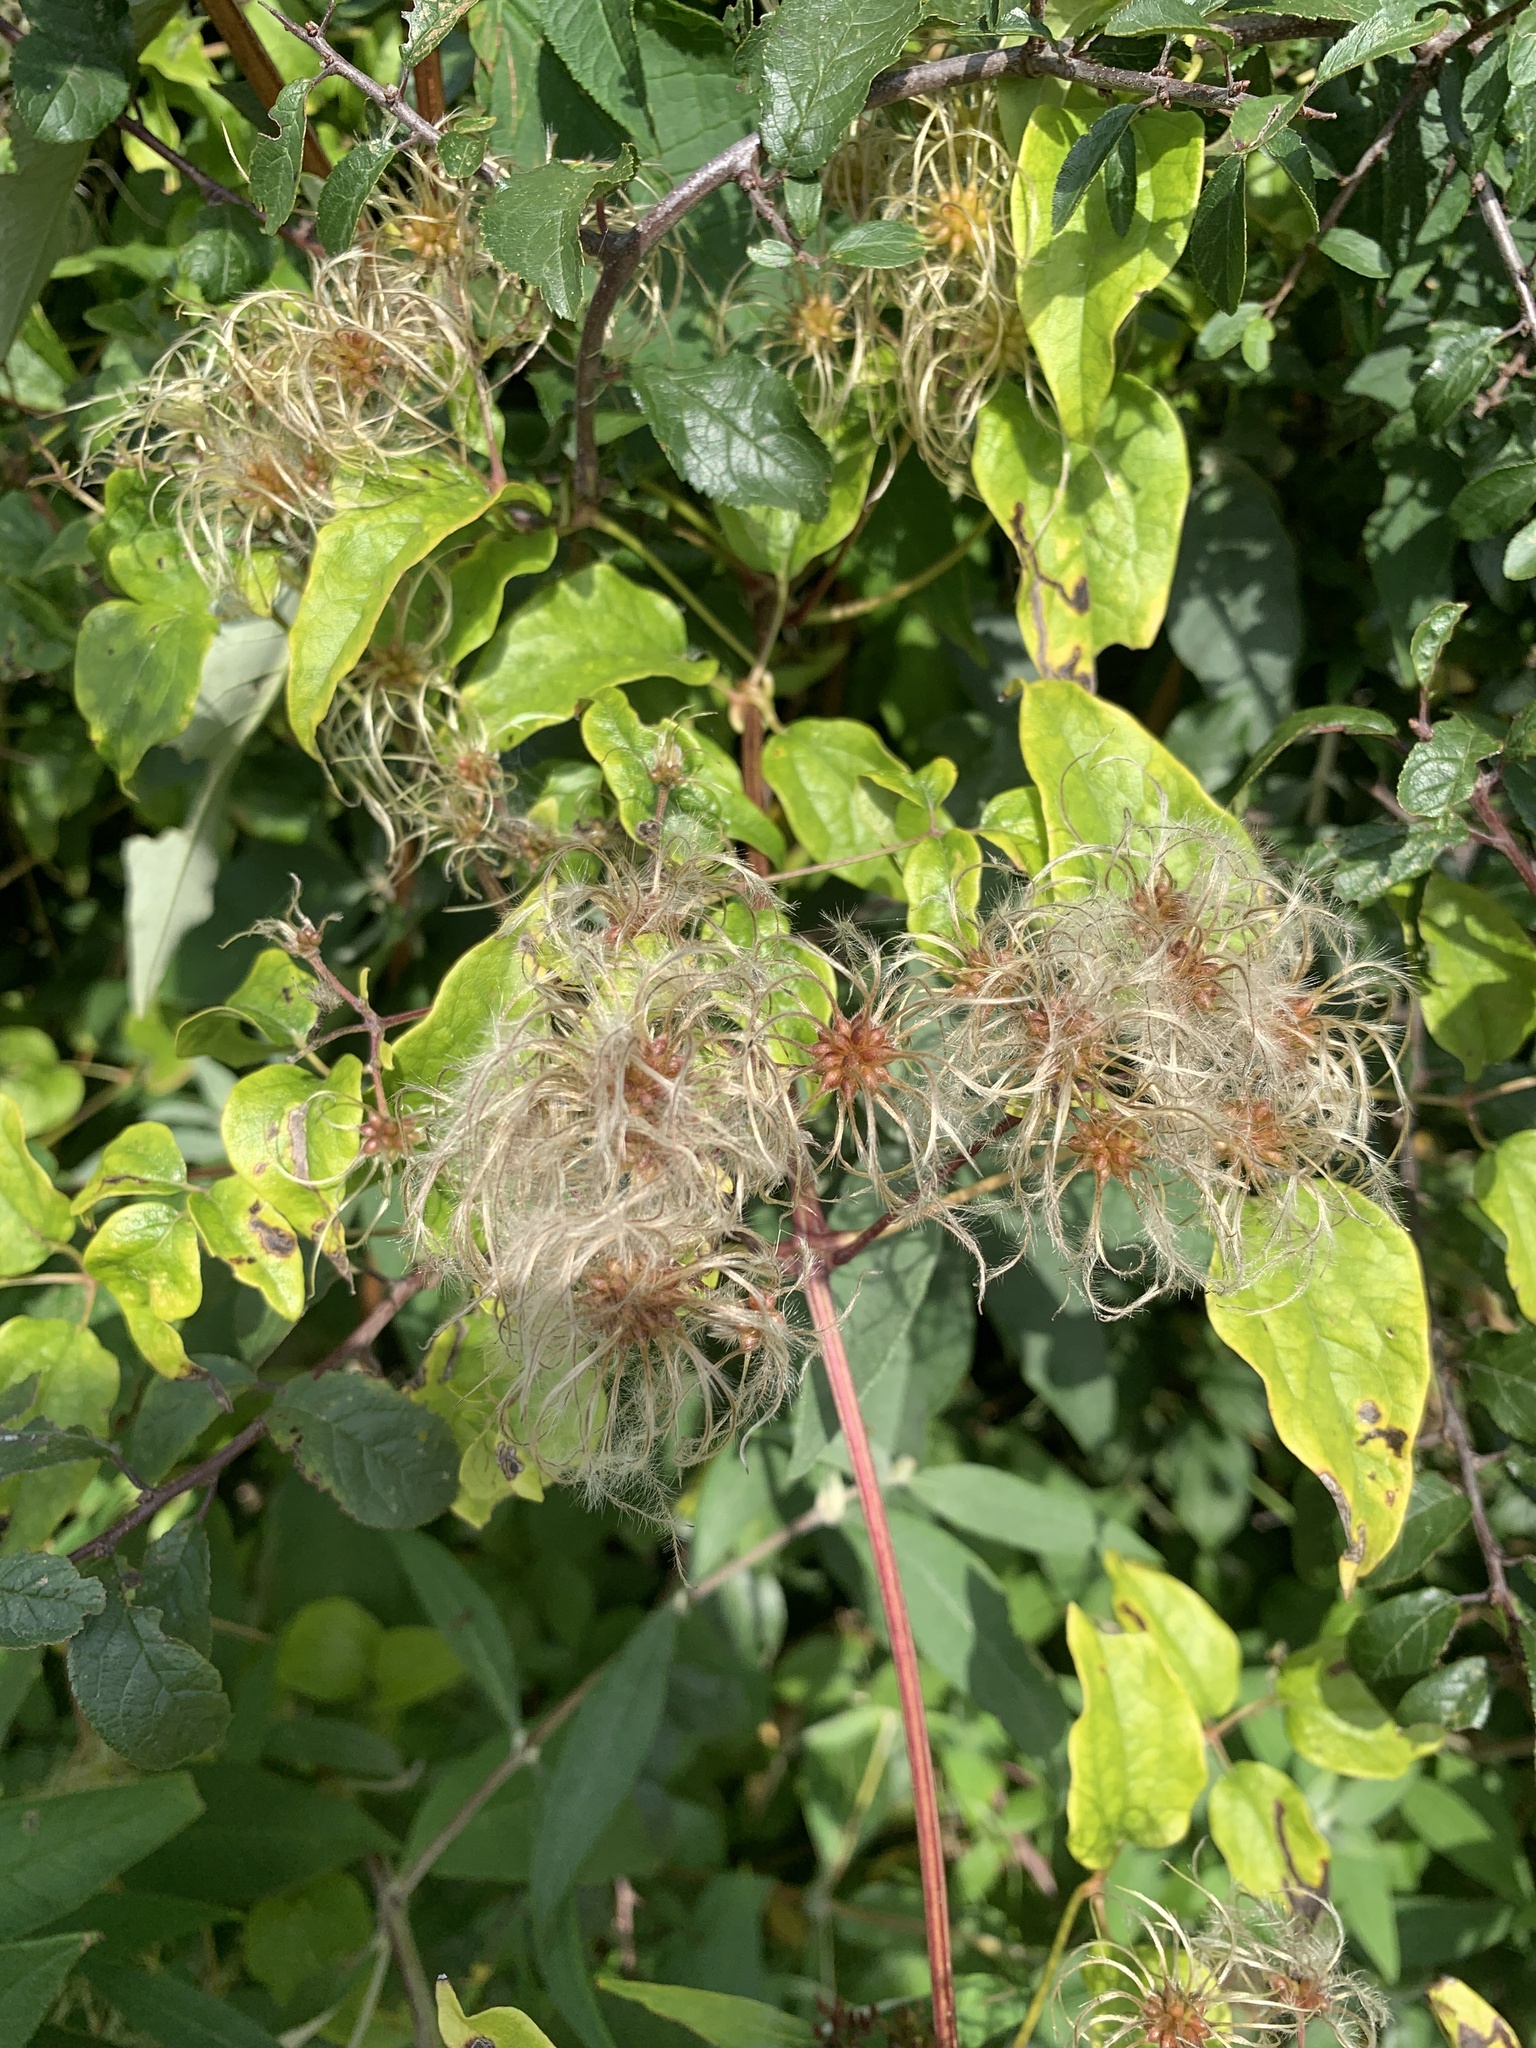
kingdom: Plantae
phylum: Tracheophyta
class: Magnoliopsida
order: Ranunculales
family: Ranunculaceae
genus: Clematis
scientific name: Clematis vitalba
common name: Evergreen clematis
